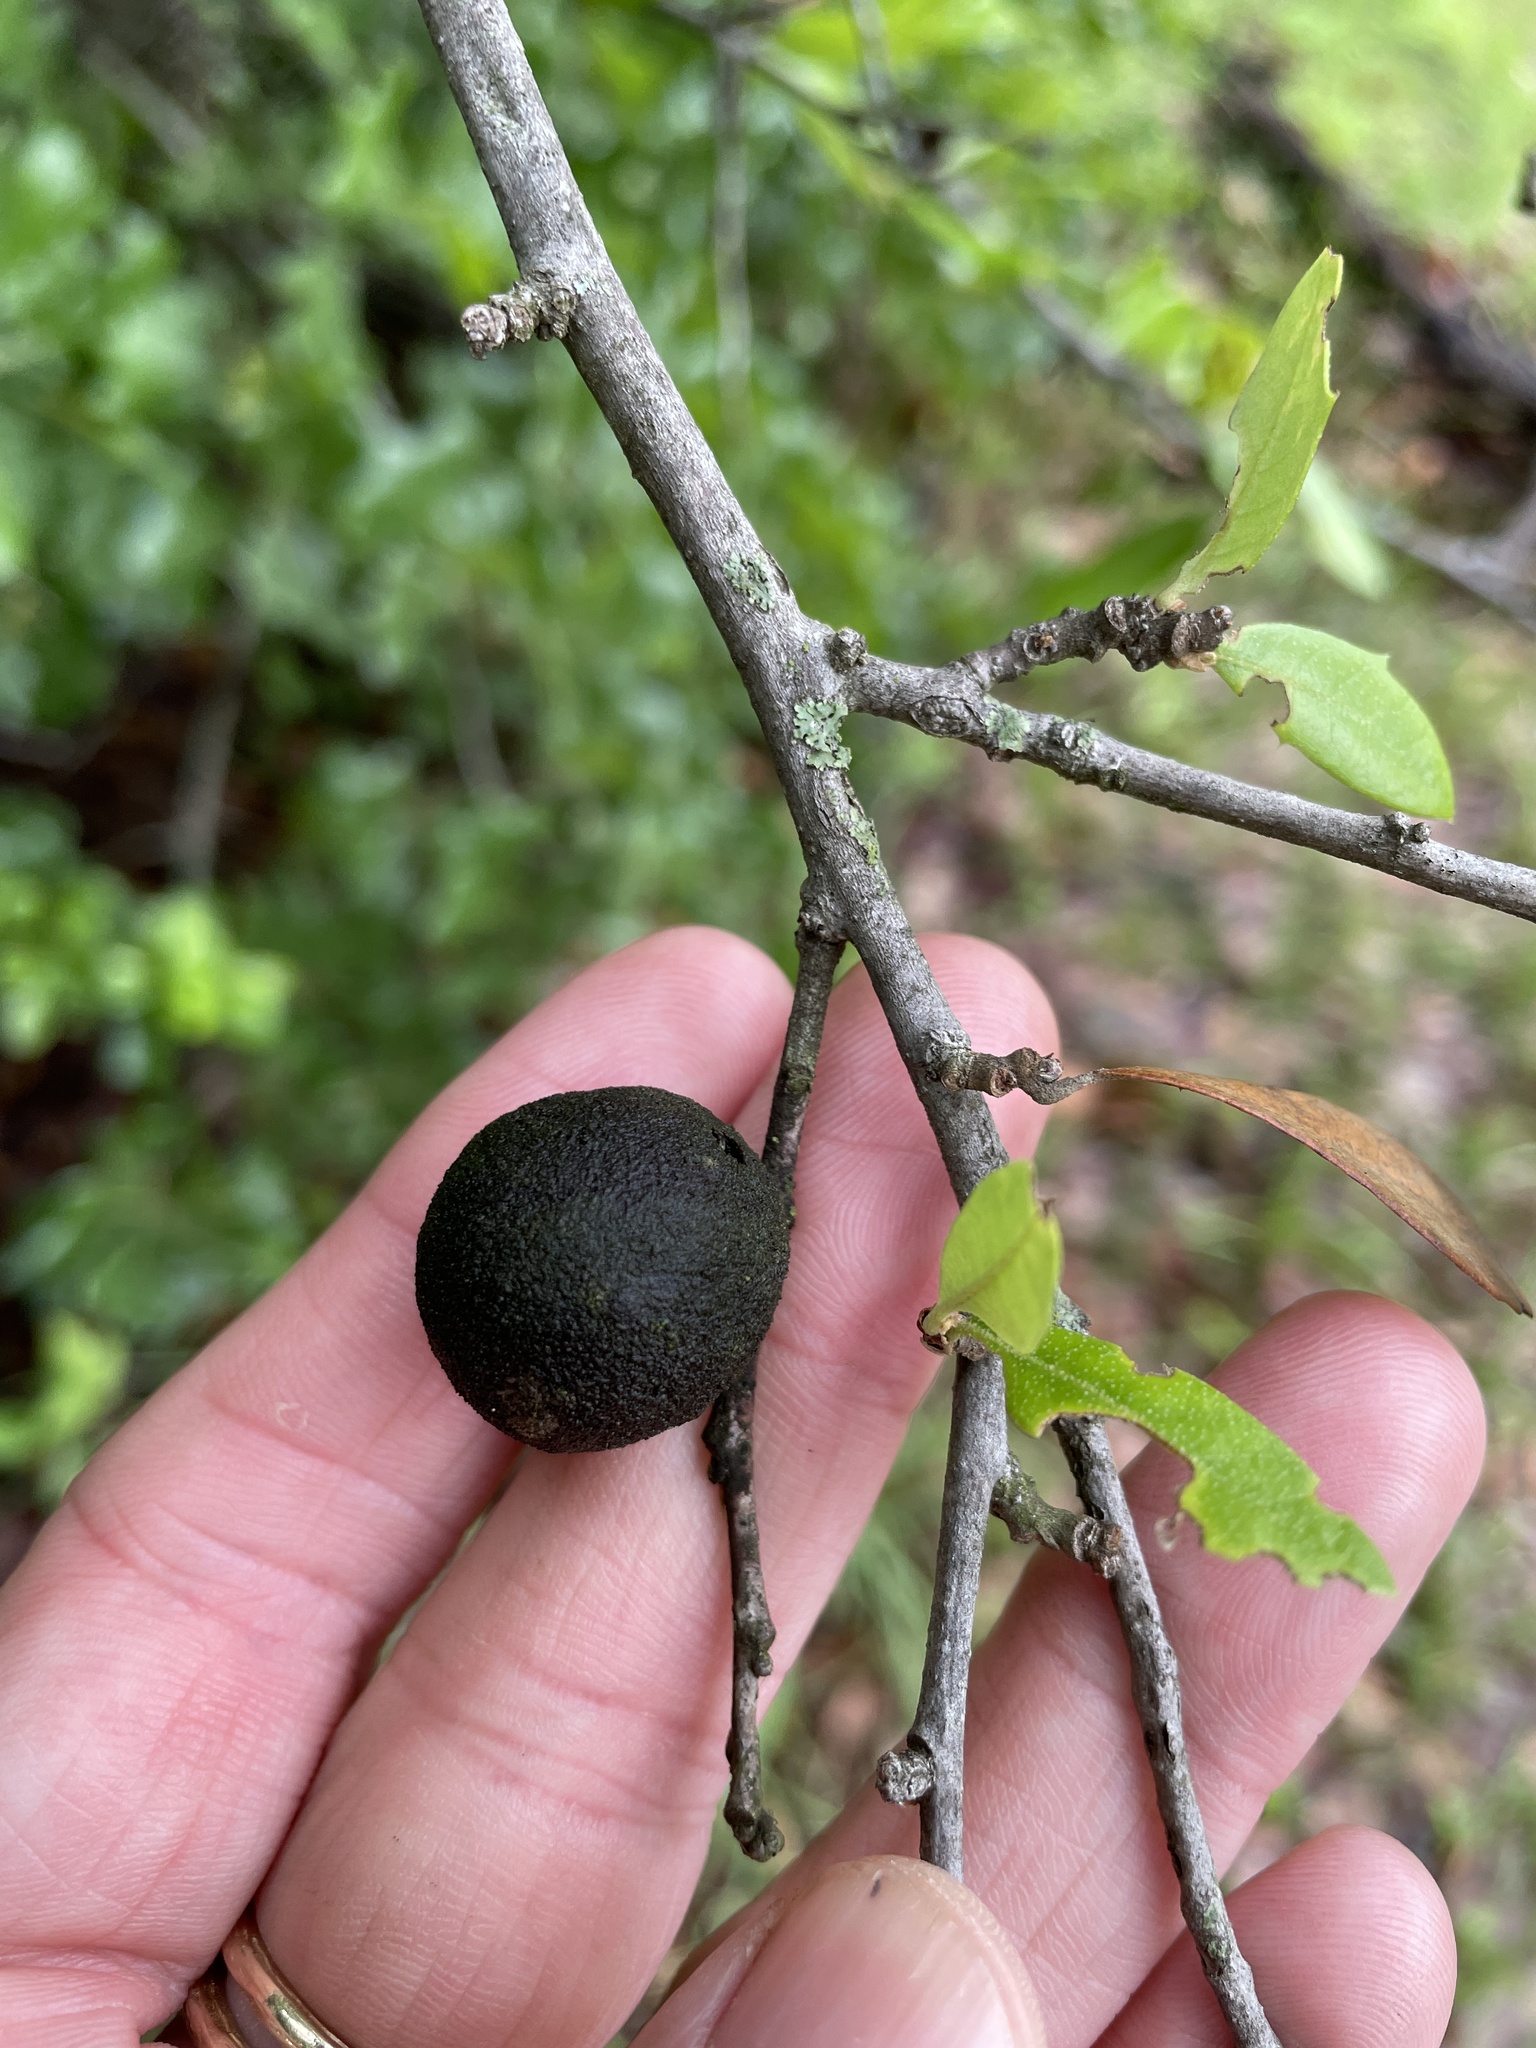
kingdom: Animalia
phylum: Arthropoda
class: Insecta
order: Hymenoptera
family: Cynipidae
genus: Disholcaspis
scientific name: Disholcaspis
